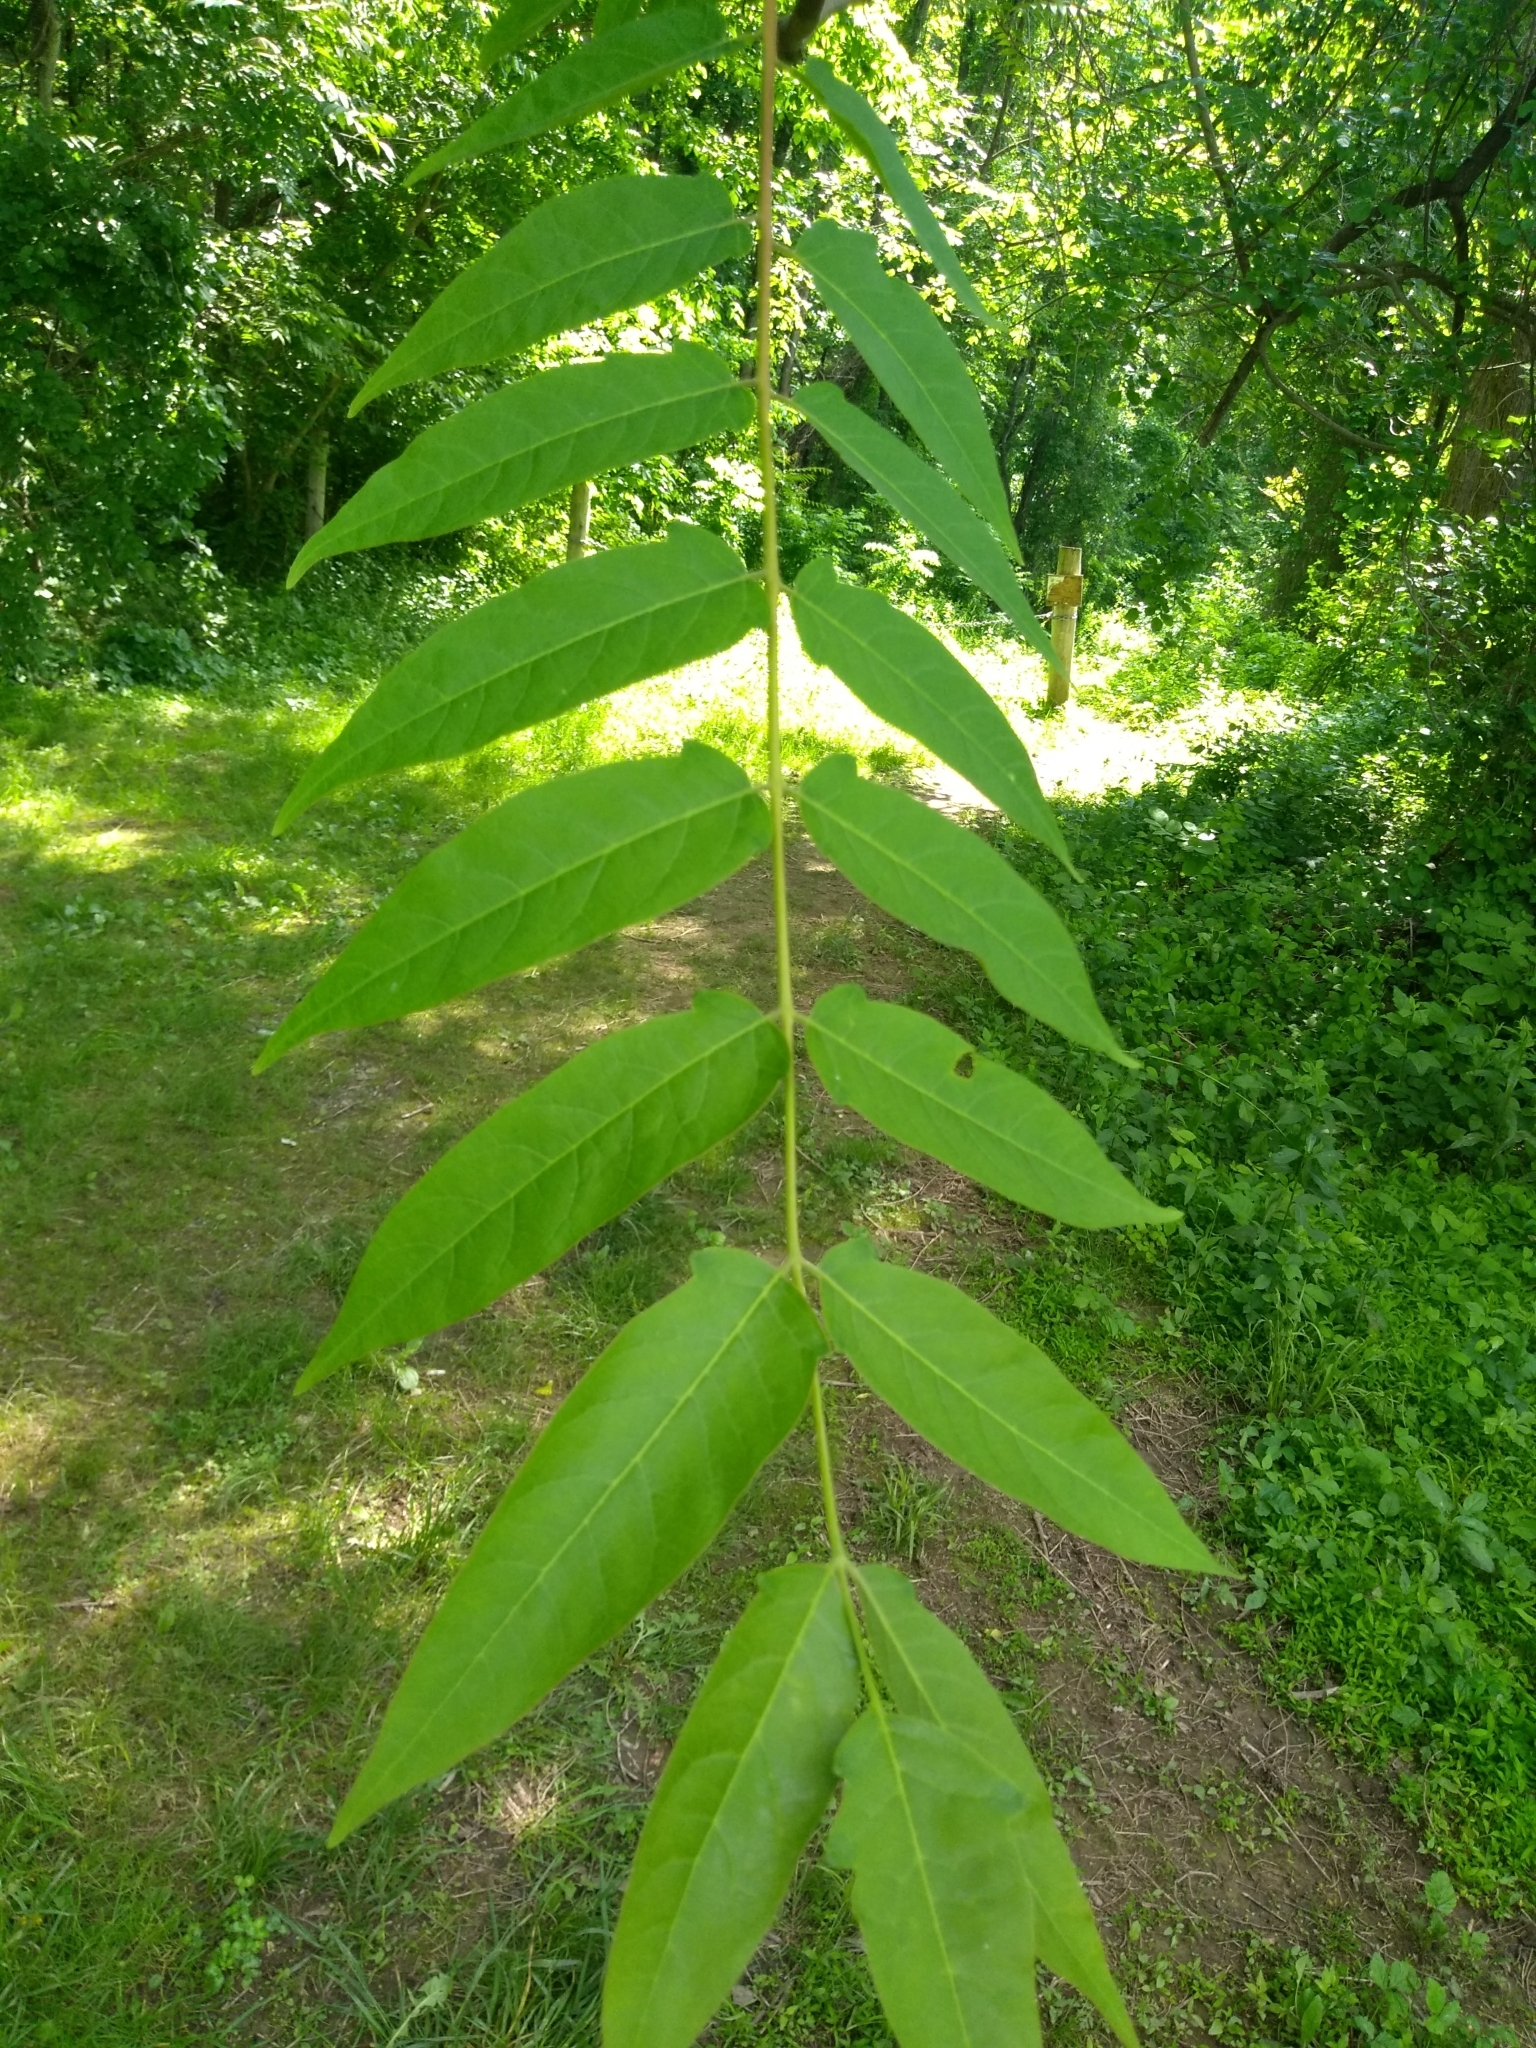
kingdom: Plantae
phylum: Tracheophyta
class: Magnoliopsida
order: Sapindales
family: Simaroubaceae
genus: Ailanthus
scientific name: Ailanthus altissima
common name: Tree-of-heaven
